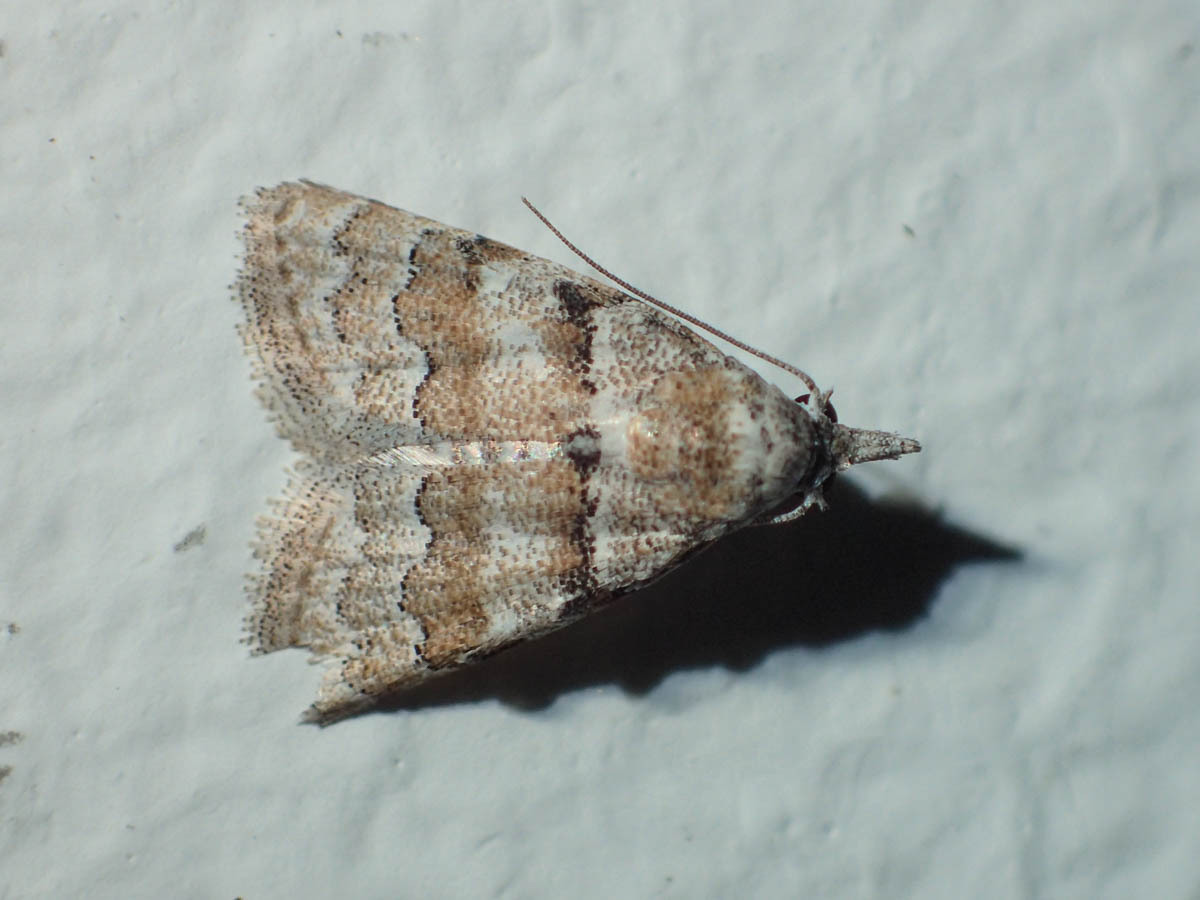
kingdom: Animalia
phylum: Arthropoda
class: Insecta
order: Lepidoptera
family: Nolidae
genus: Nola
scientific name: Nola bifascialis
